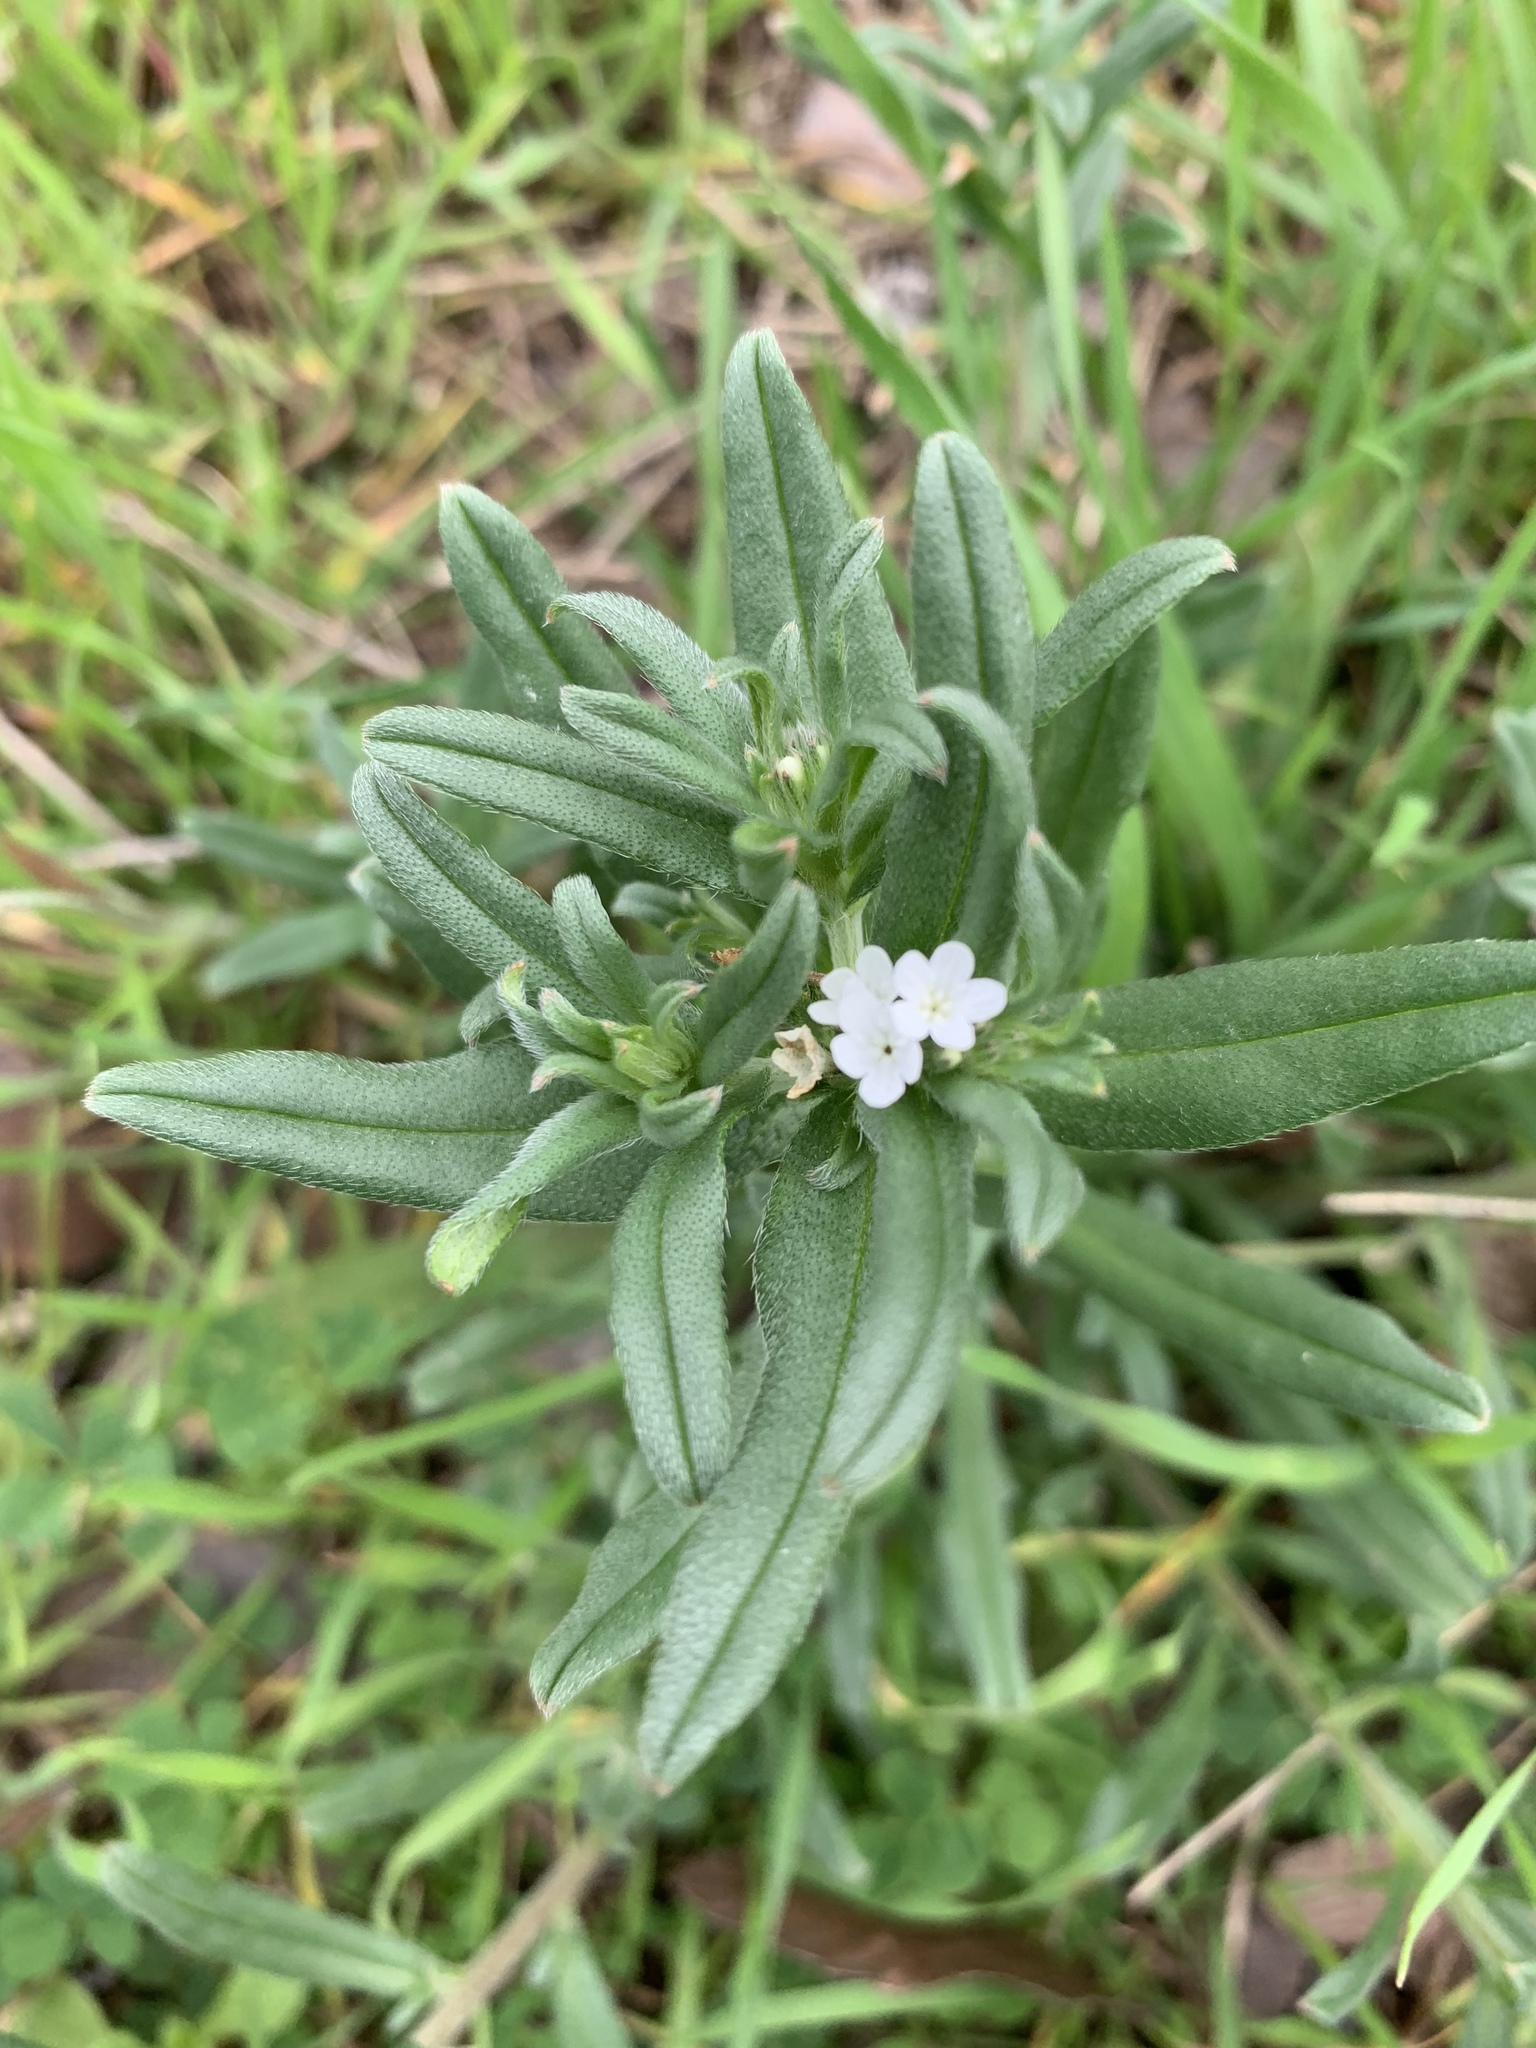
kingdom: Plantae
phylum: Tracheophyta
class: Magnoliopsida
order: Boraginales
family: Boraginaceae
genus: Buglossoides
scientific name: Buglossoides arvensis
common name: Corn gromwell
